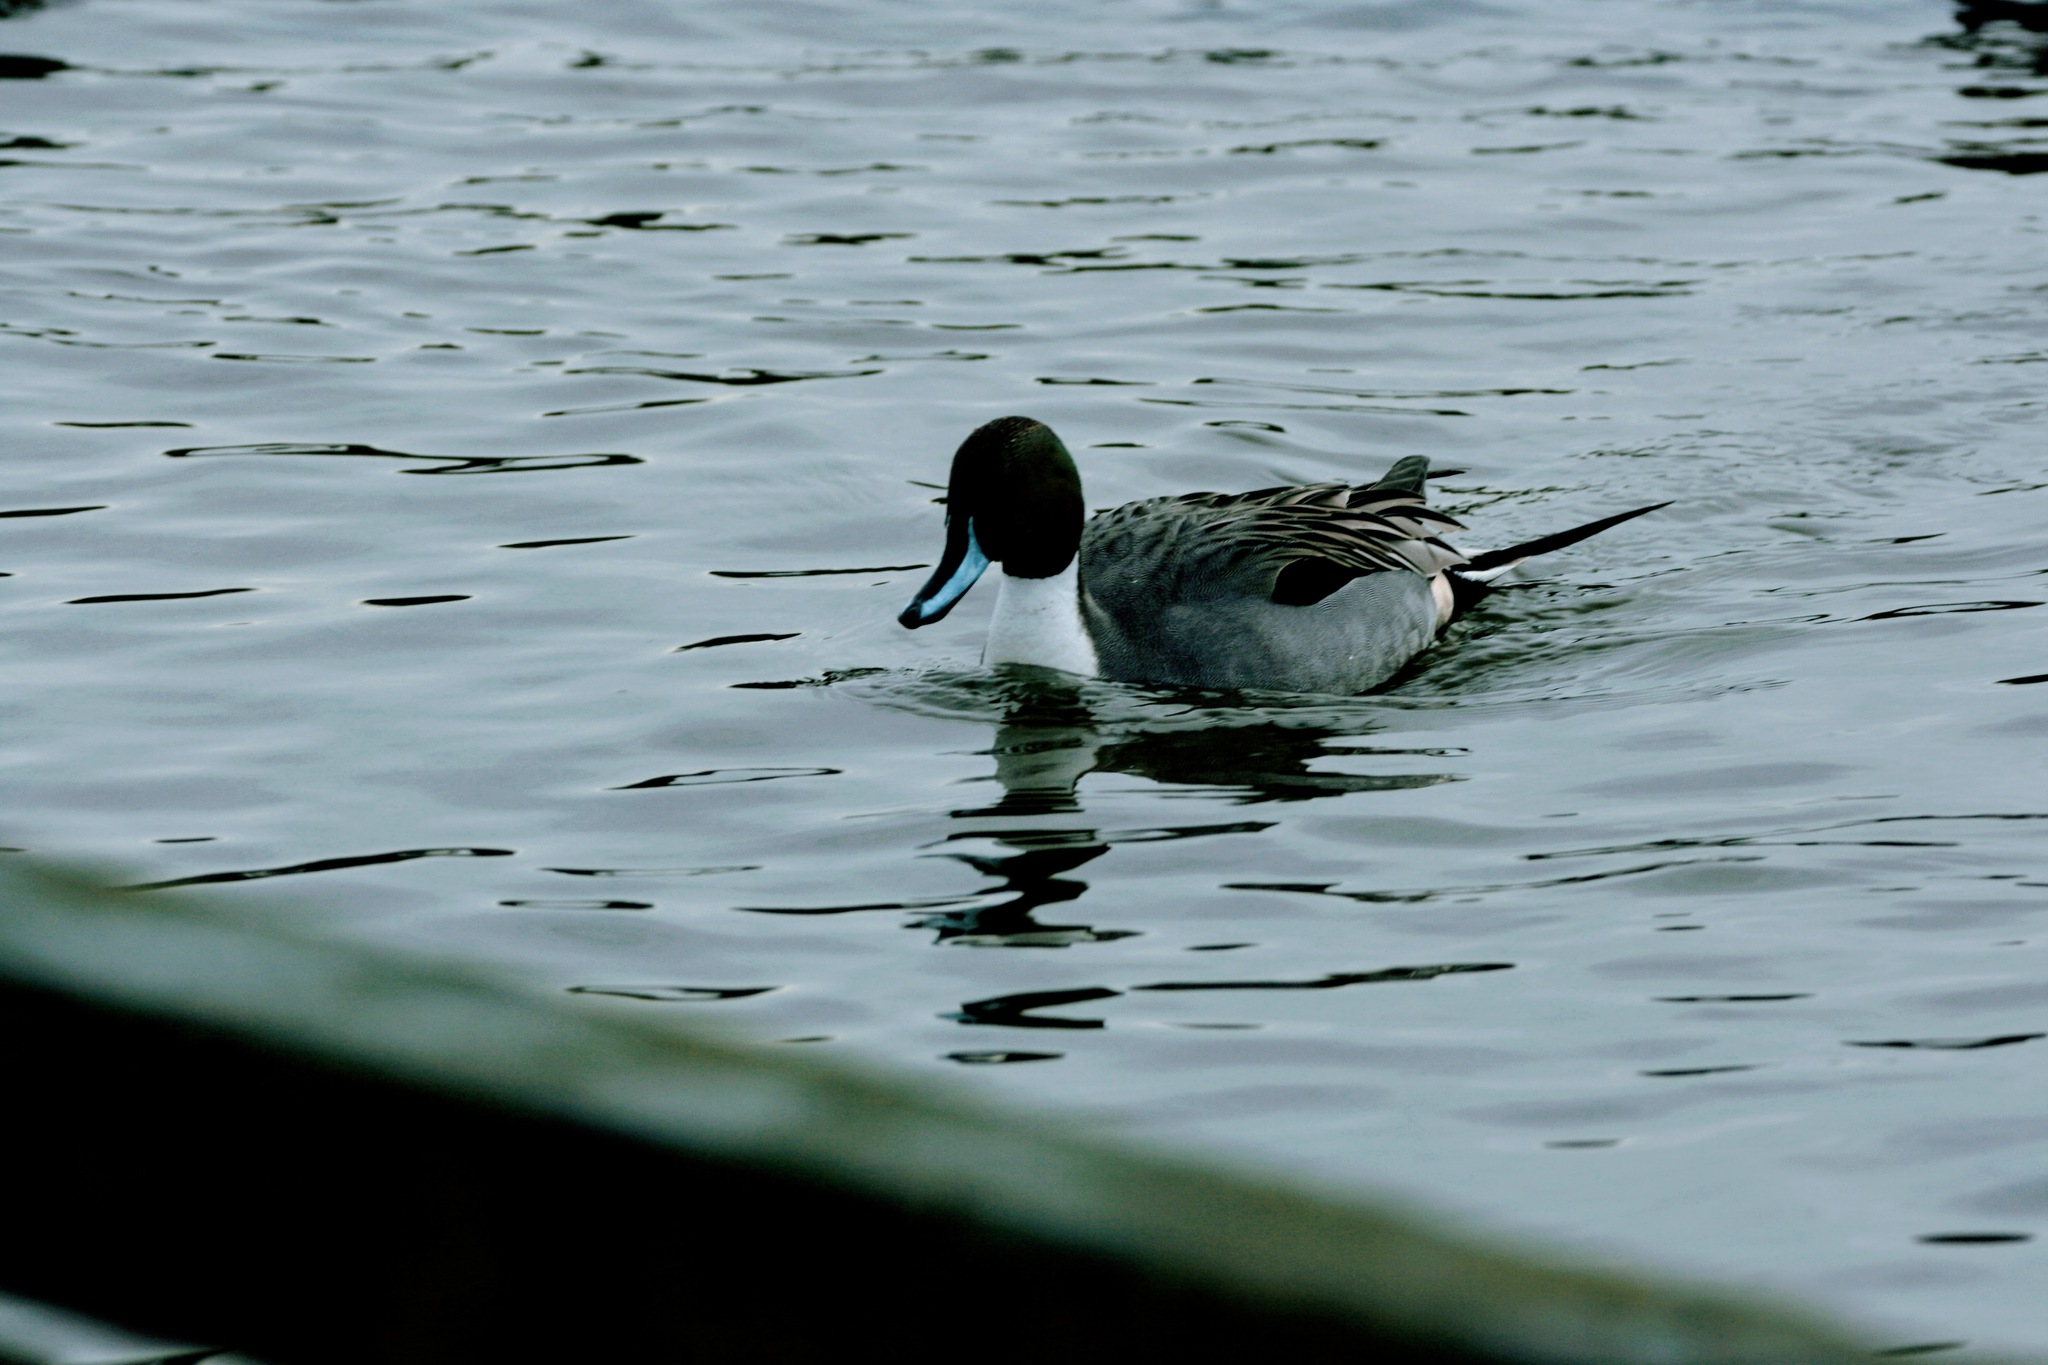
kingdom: Animalia
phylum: Chordata
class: Aves
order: Anseriformes
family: Anatidae
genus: Anas
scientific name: Anas acuta
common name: Northern pintail
